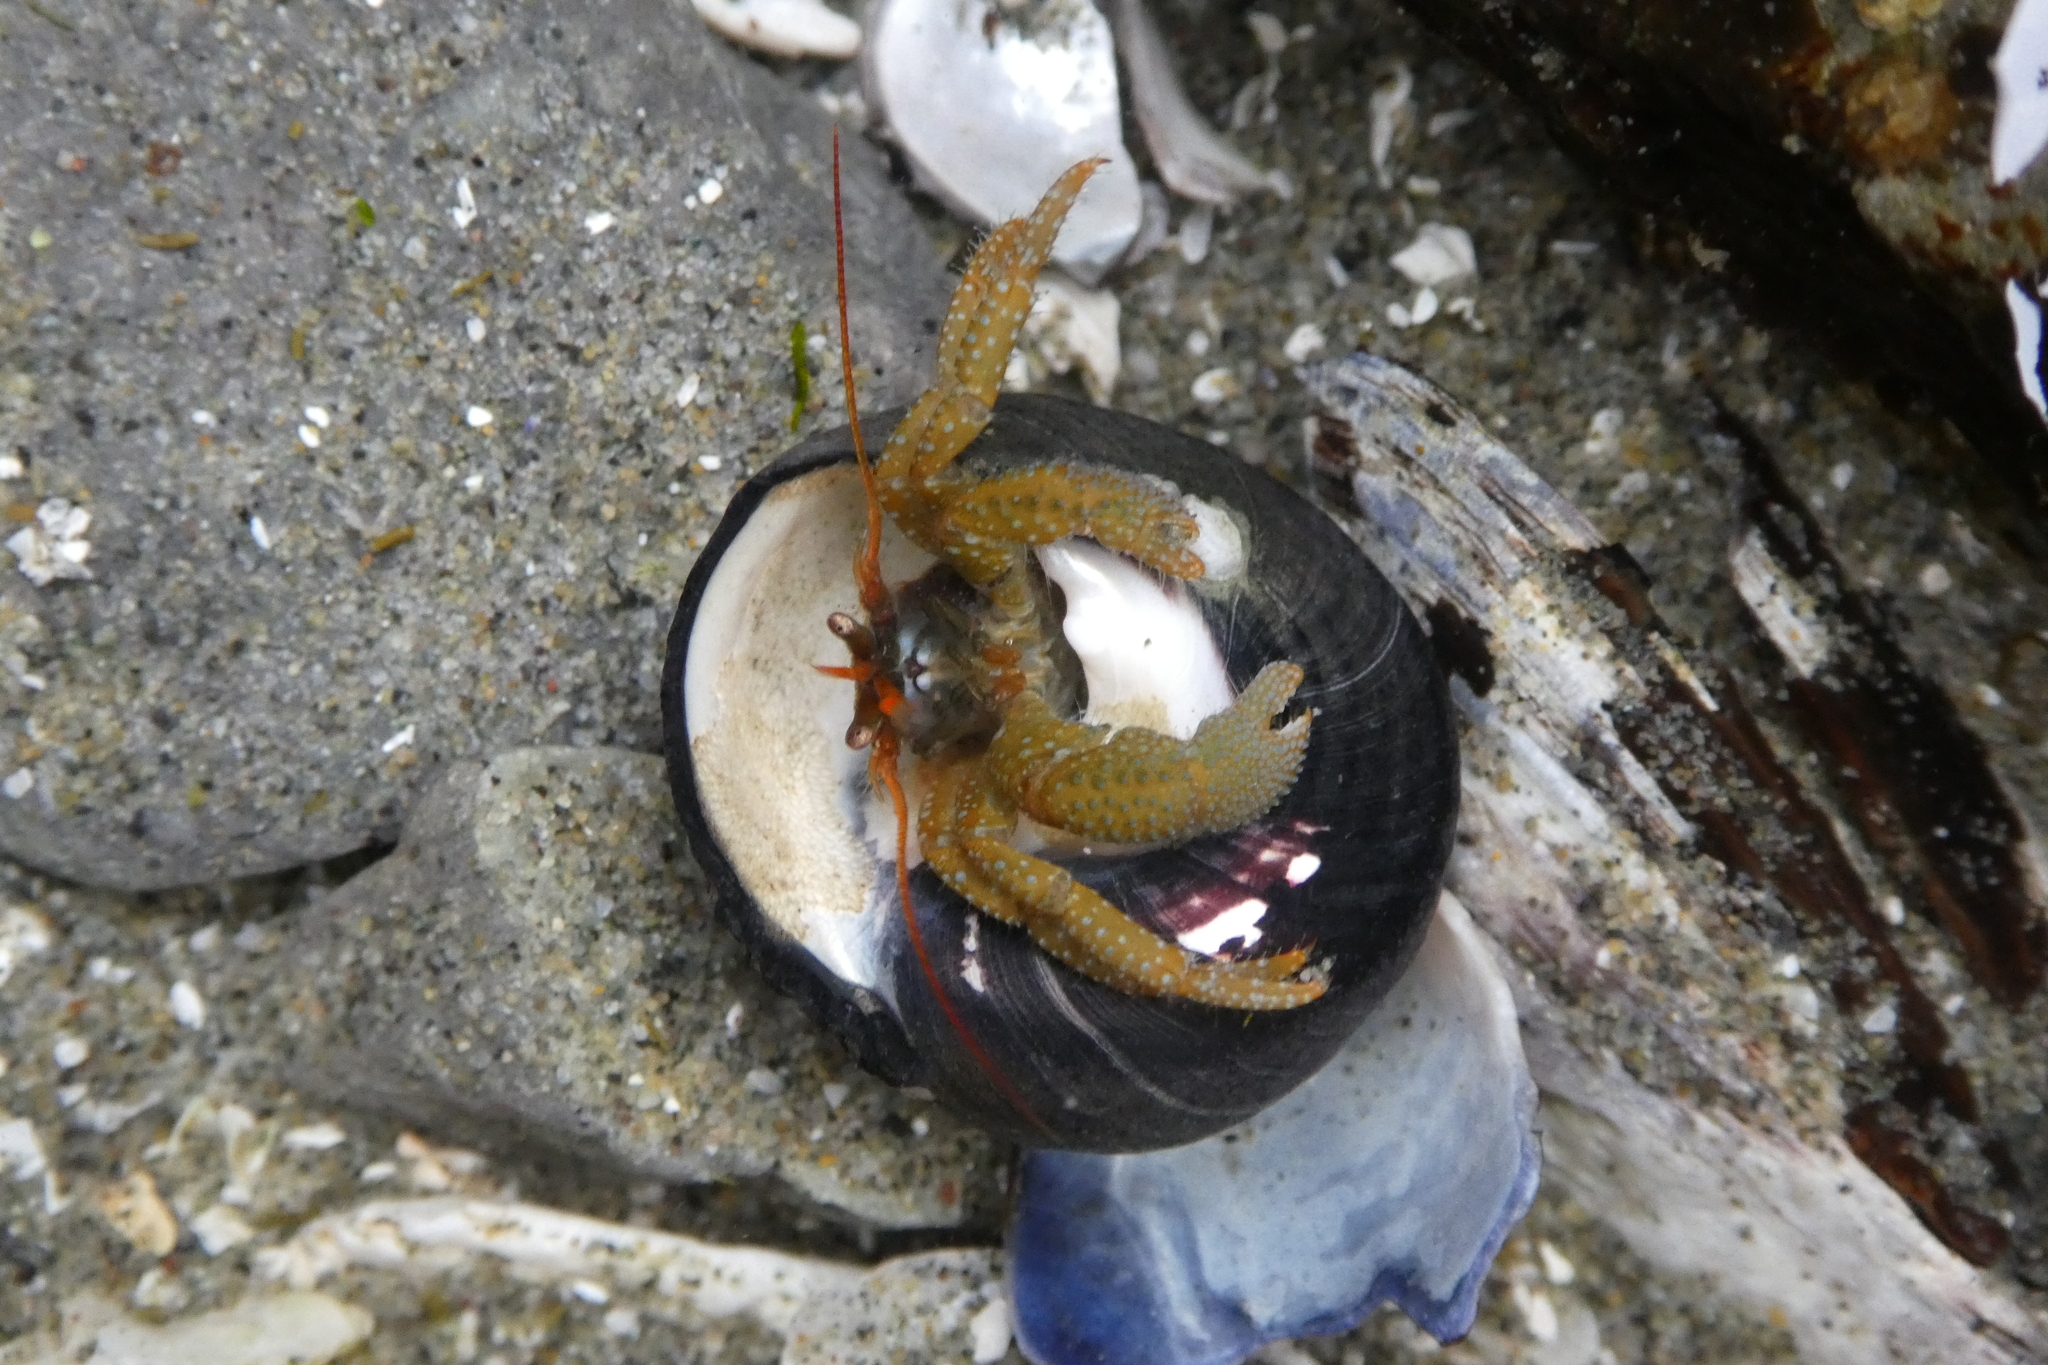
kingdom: Animalia
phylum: Arthropoda
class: Malacostraca
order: Decapoda
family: Paguridae
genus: Pagurus
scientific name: Pagurus granosimanus
